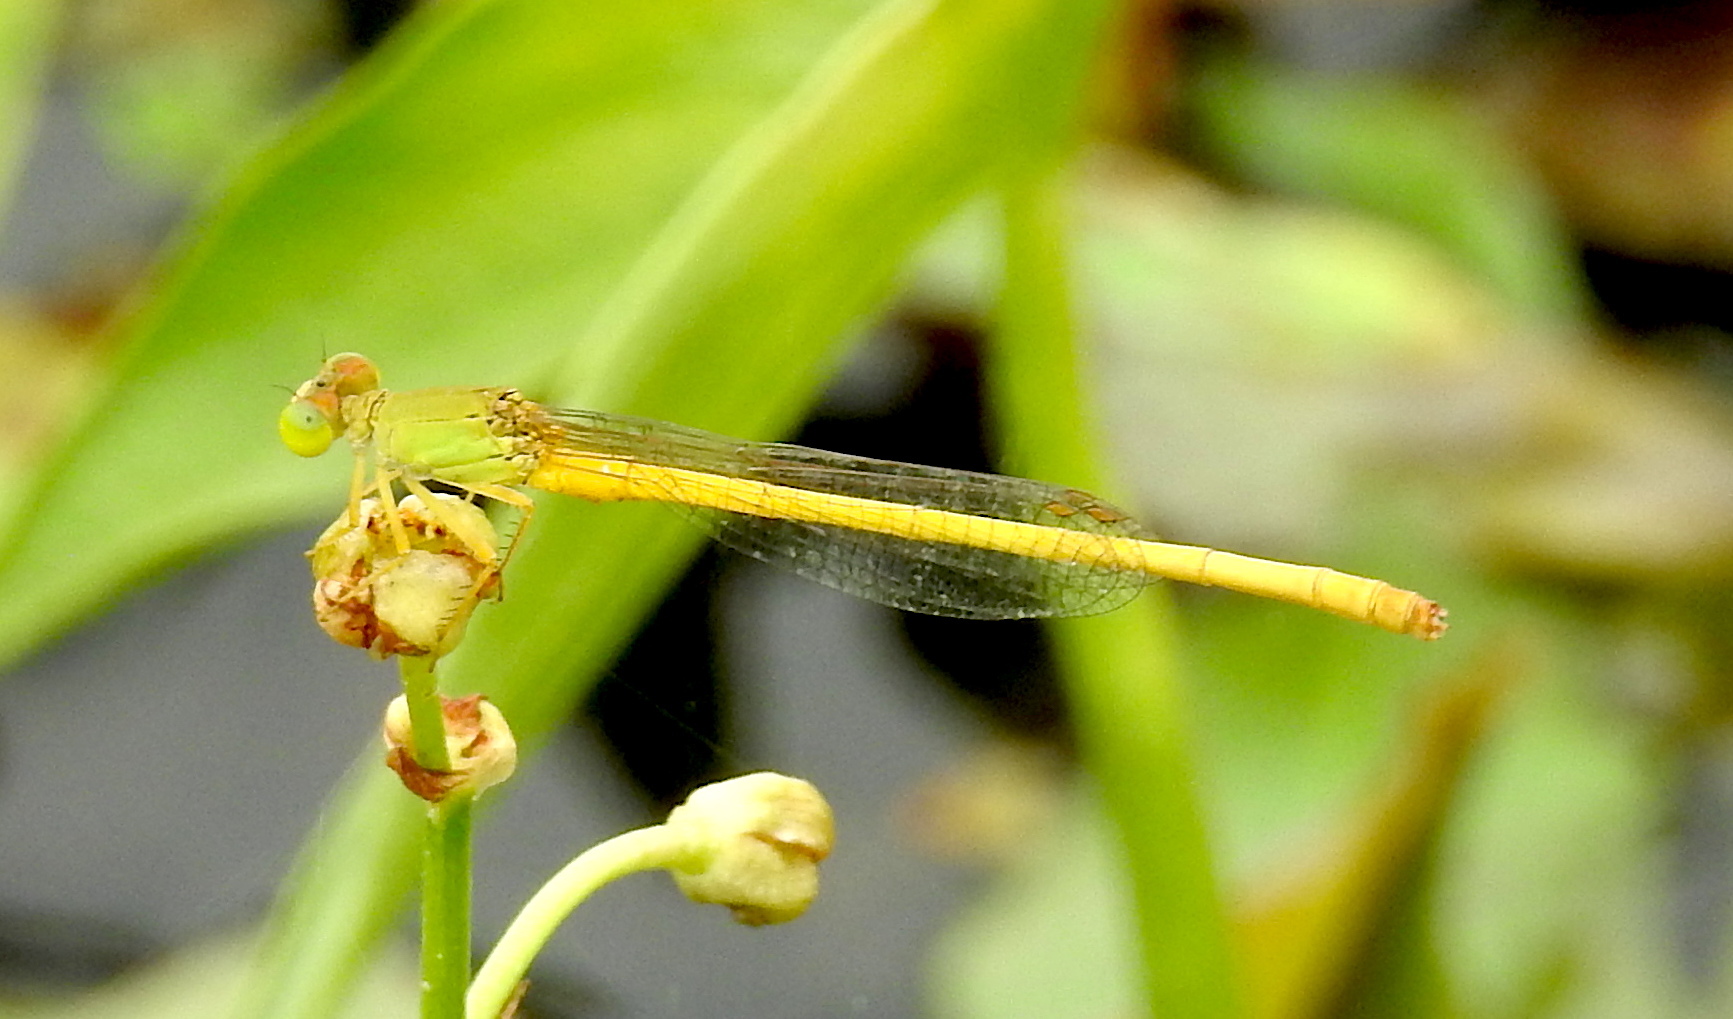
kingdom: Animalia
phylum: Arthropoda
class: Insecta
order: Odonata
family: Coenagrionidae
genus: Ceriagrion
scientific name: Ceriagrion coromandelianum
